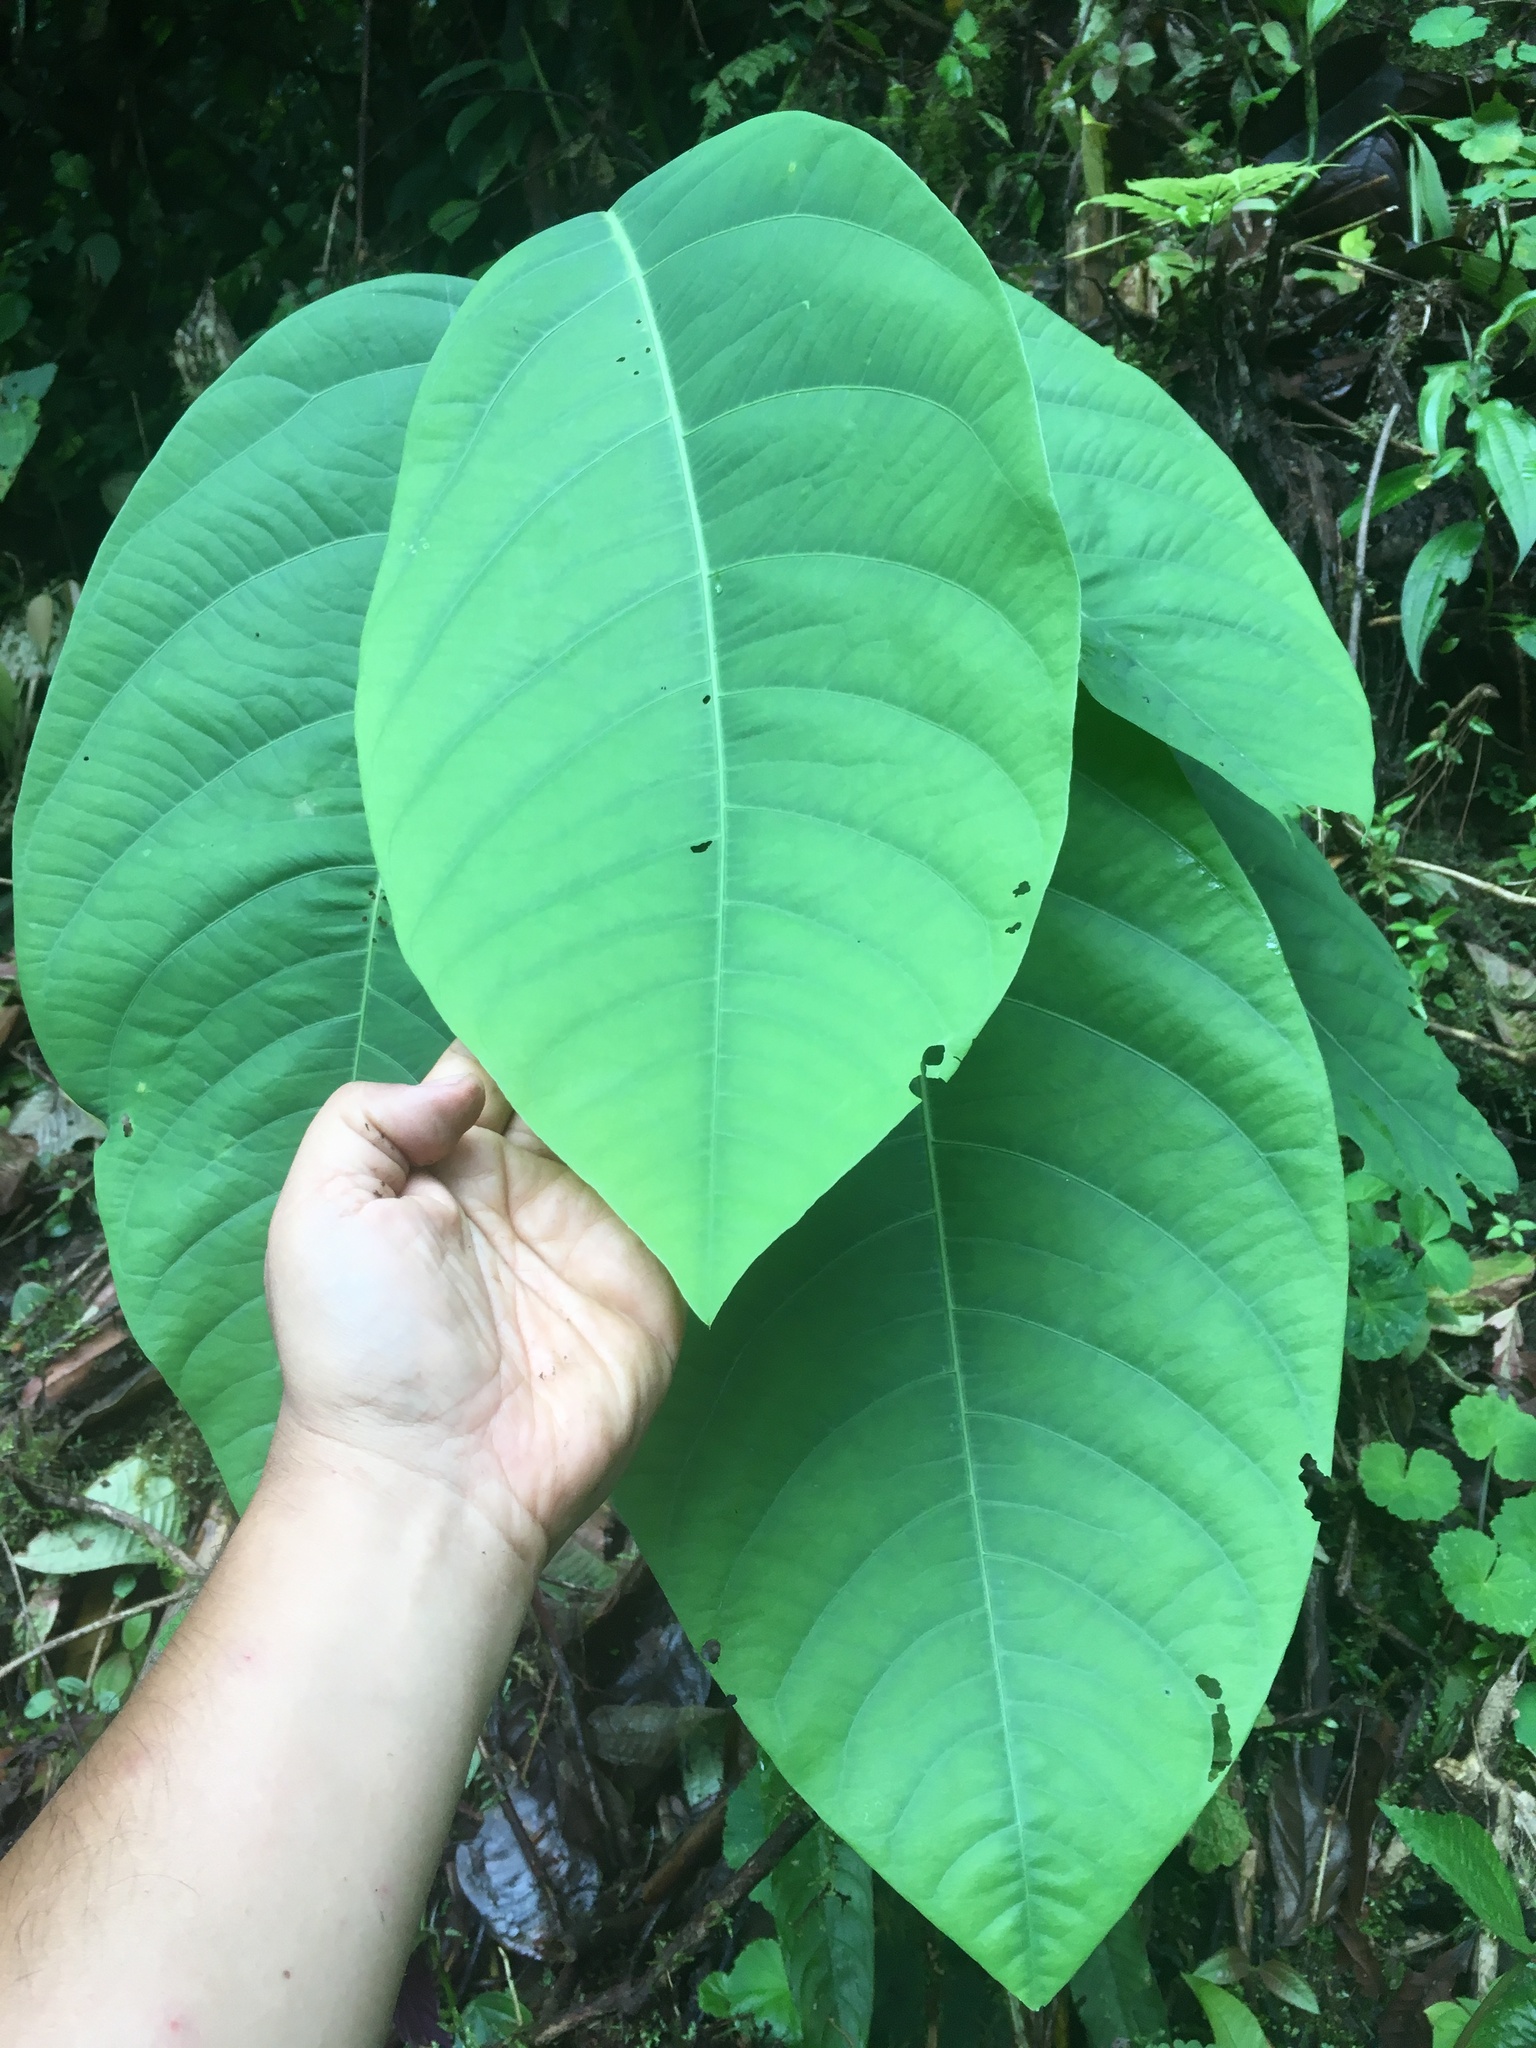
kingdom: Plantae
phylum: Tracheophyta
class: Magnoliopsida
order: Malpighiales
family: Passifloraceae
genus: Passiflora
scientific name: Passiflora magnoliifolia
